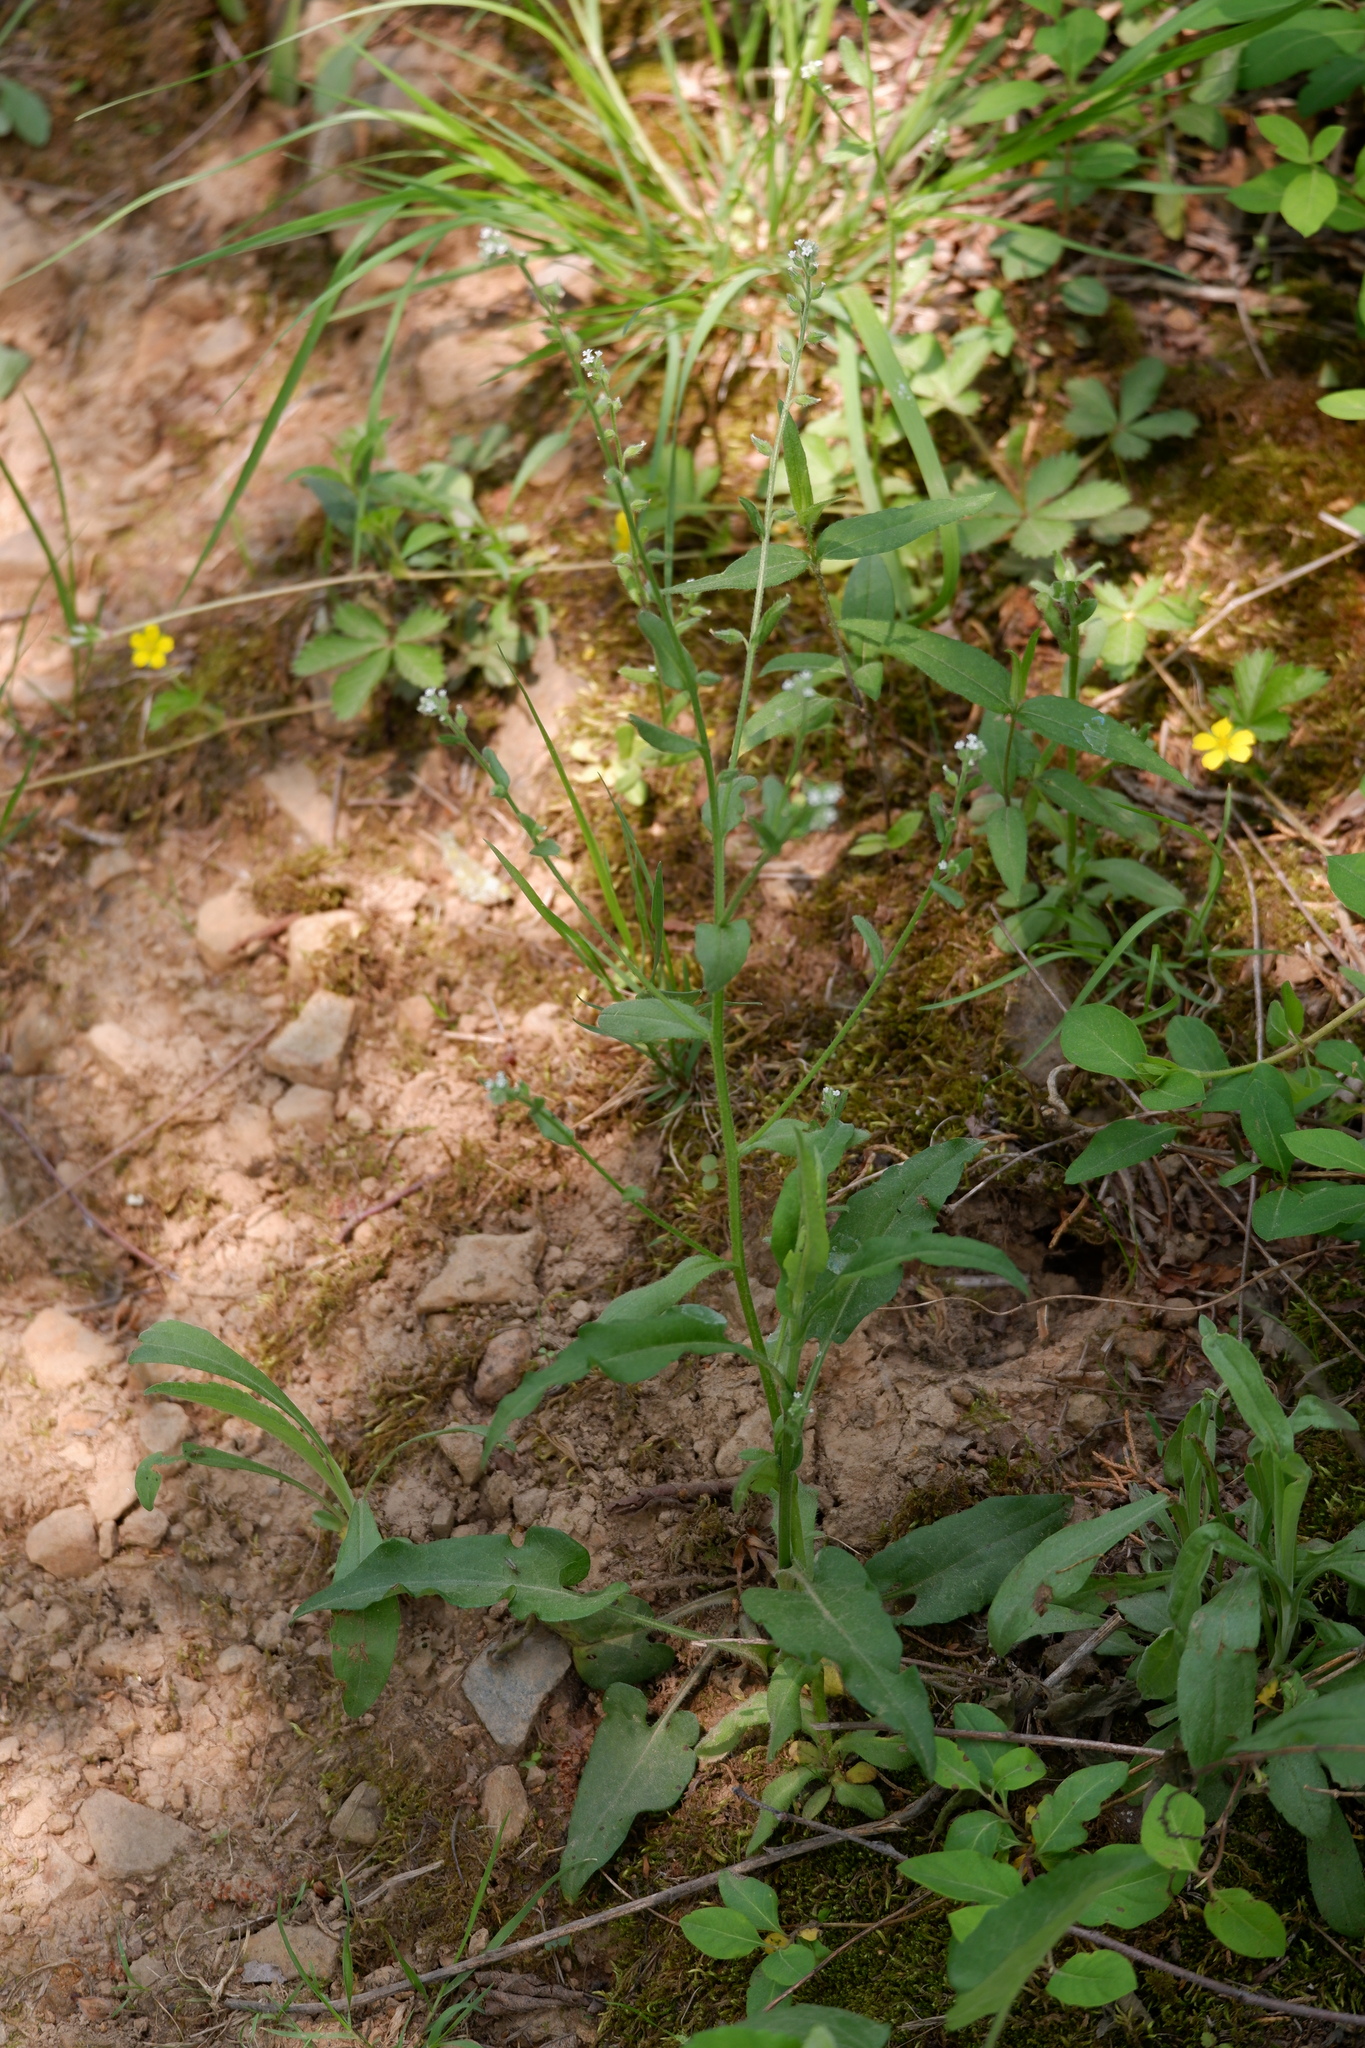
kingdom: Plantae
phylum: Tracheophyta
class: Magnoliopsida
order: Boraginales
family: Boraginaceae
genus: Myosotis
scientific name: Myosotis verna
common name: Early forget-me-not
